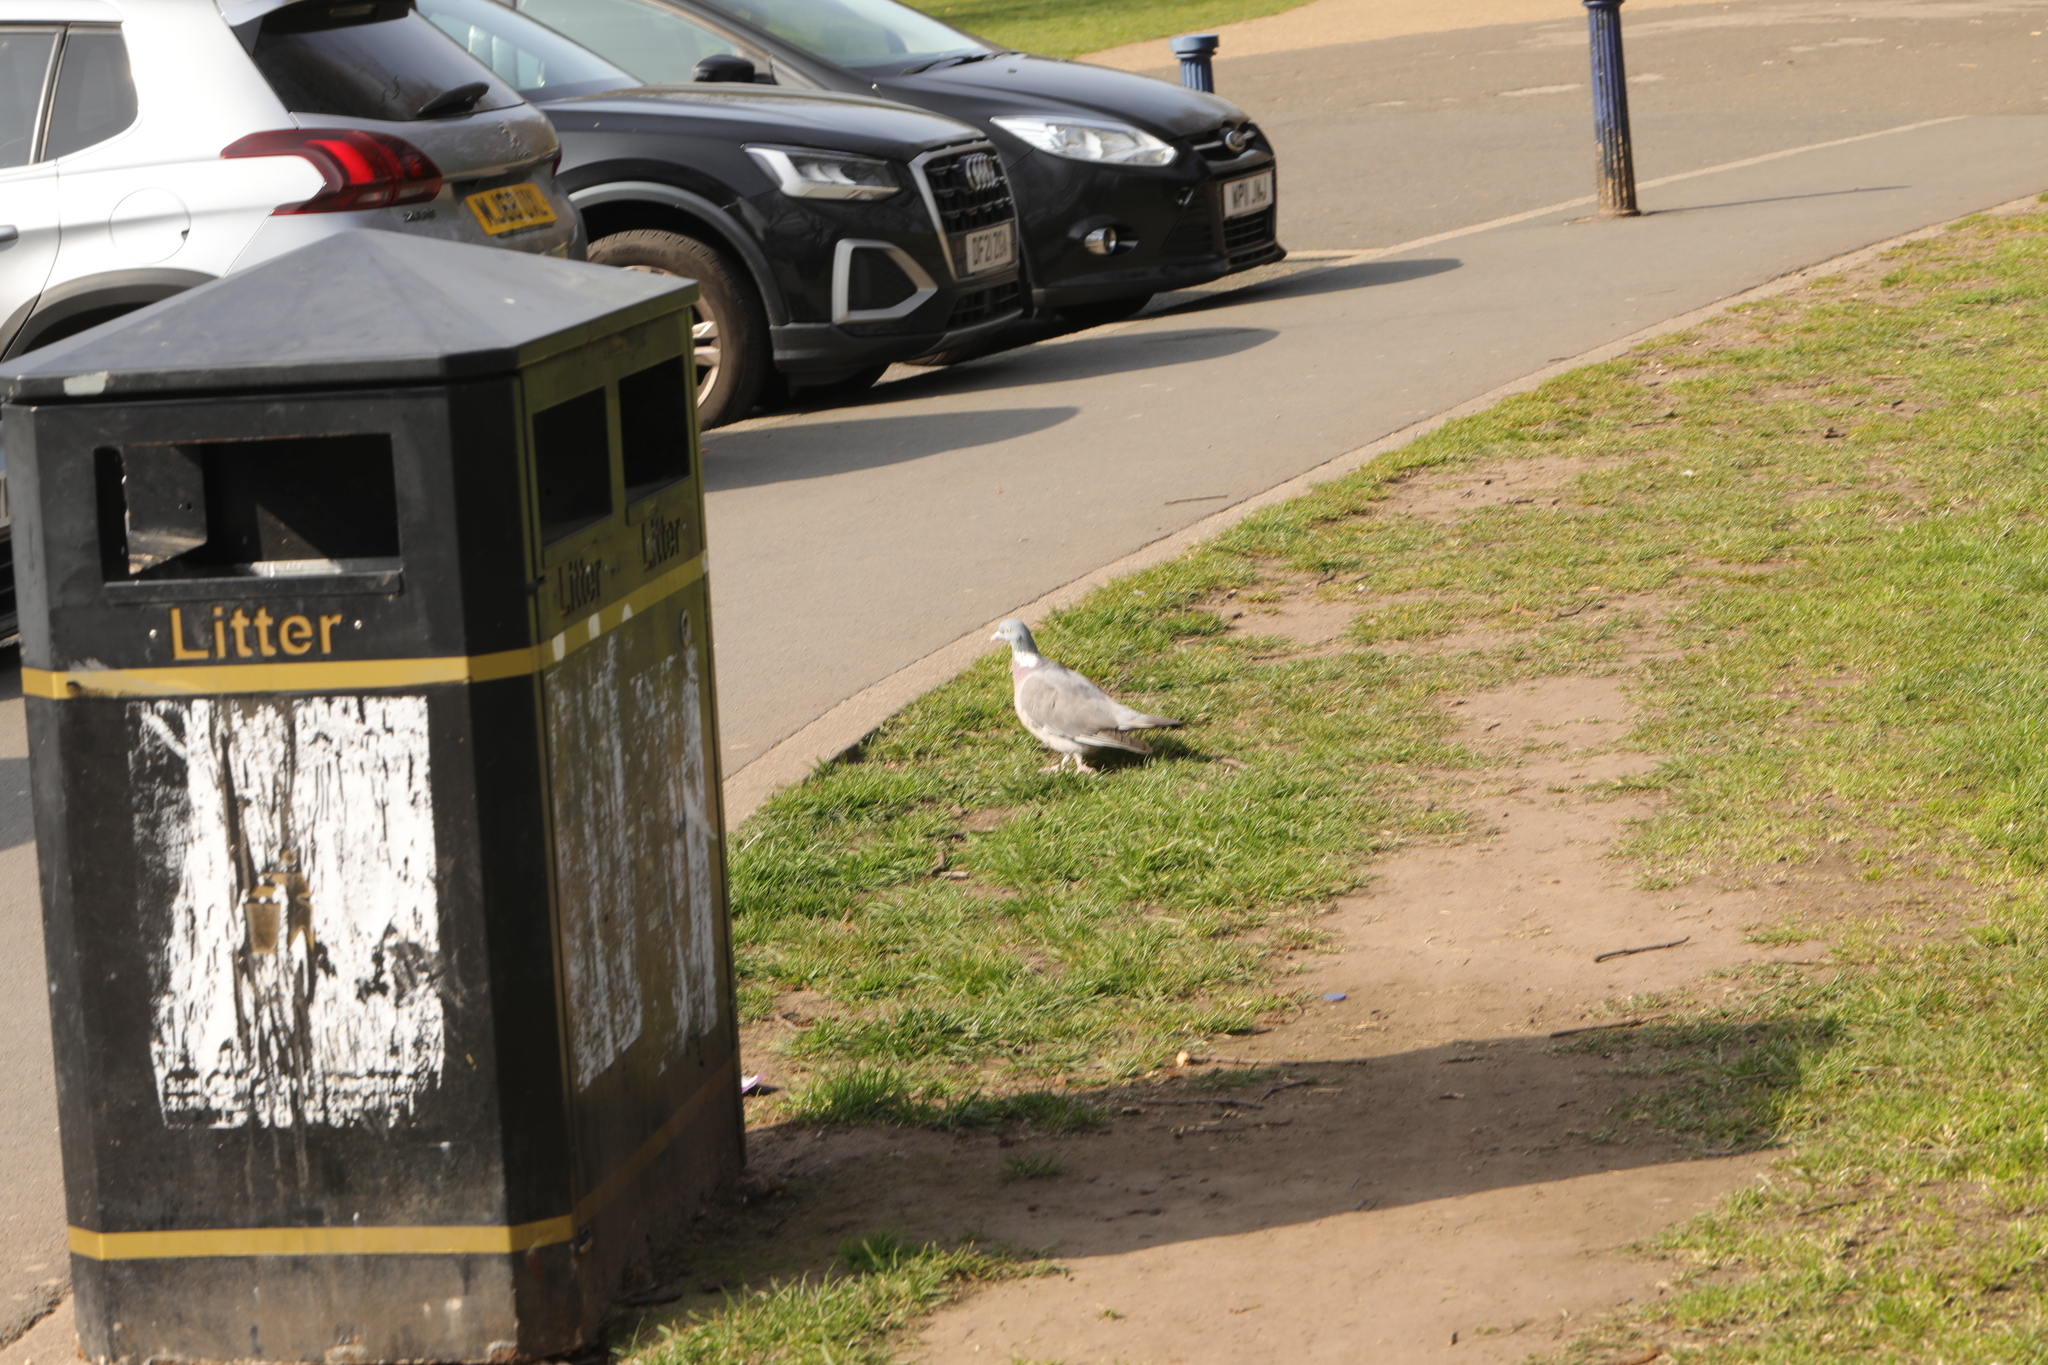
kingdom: Animalia
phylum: Chordata
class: Aves
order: Columbiformes
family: Columbidae
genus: Columba
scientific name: Columba palumbus
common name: Common wood pigeon
